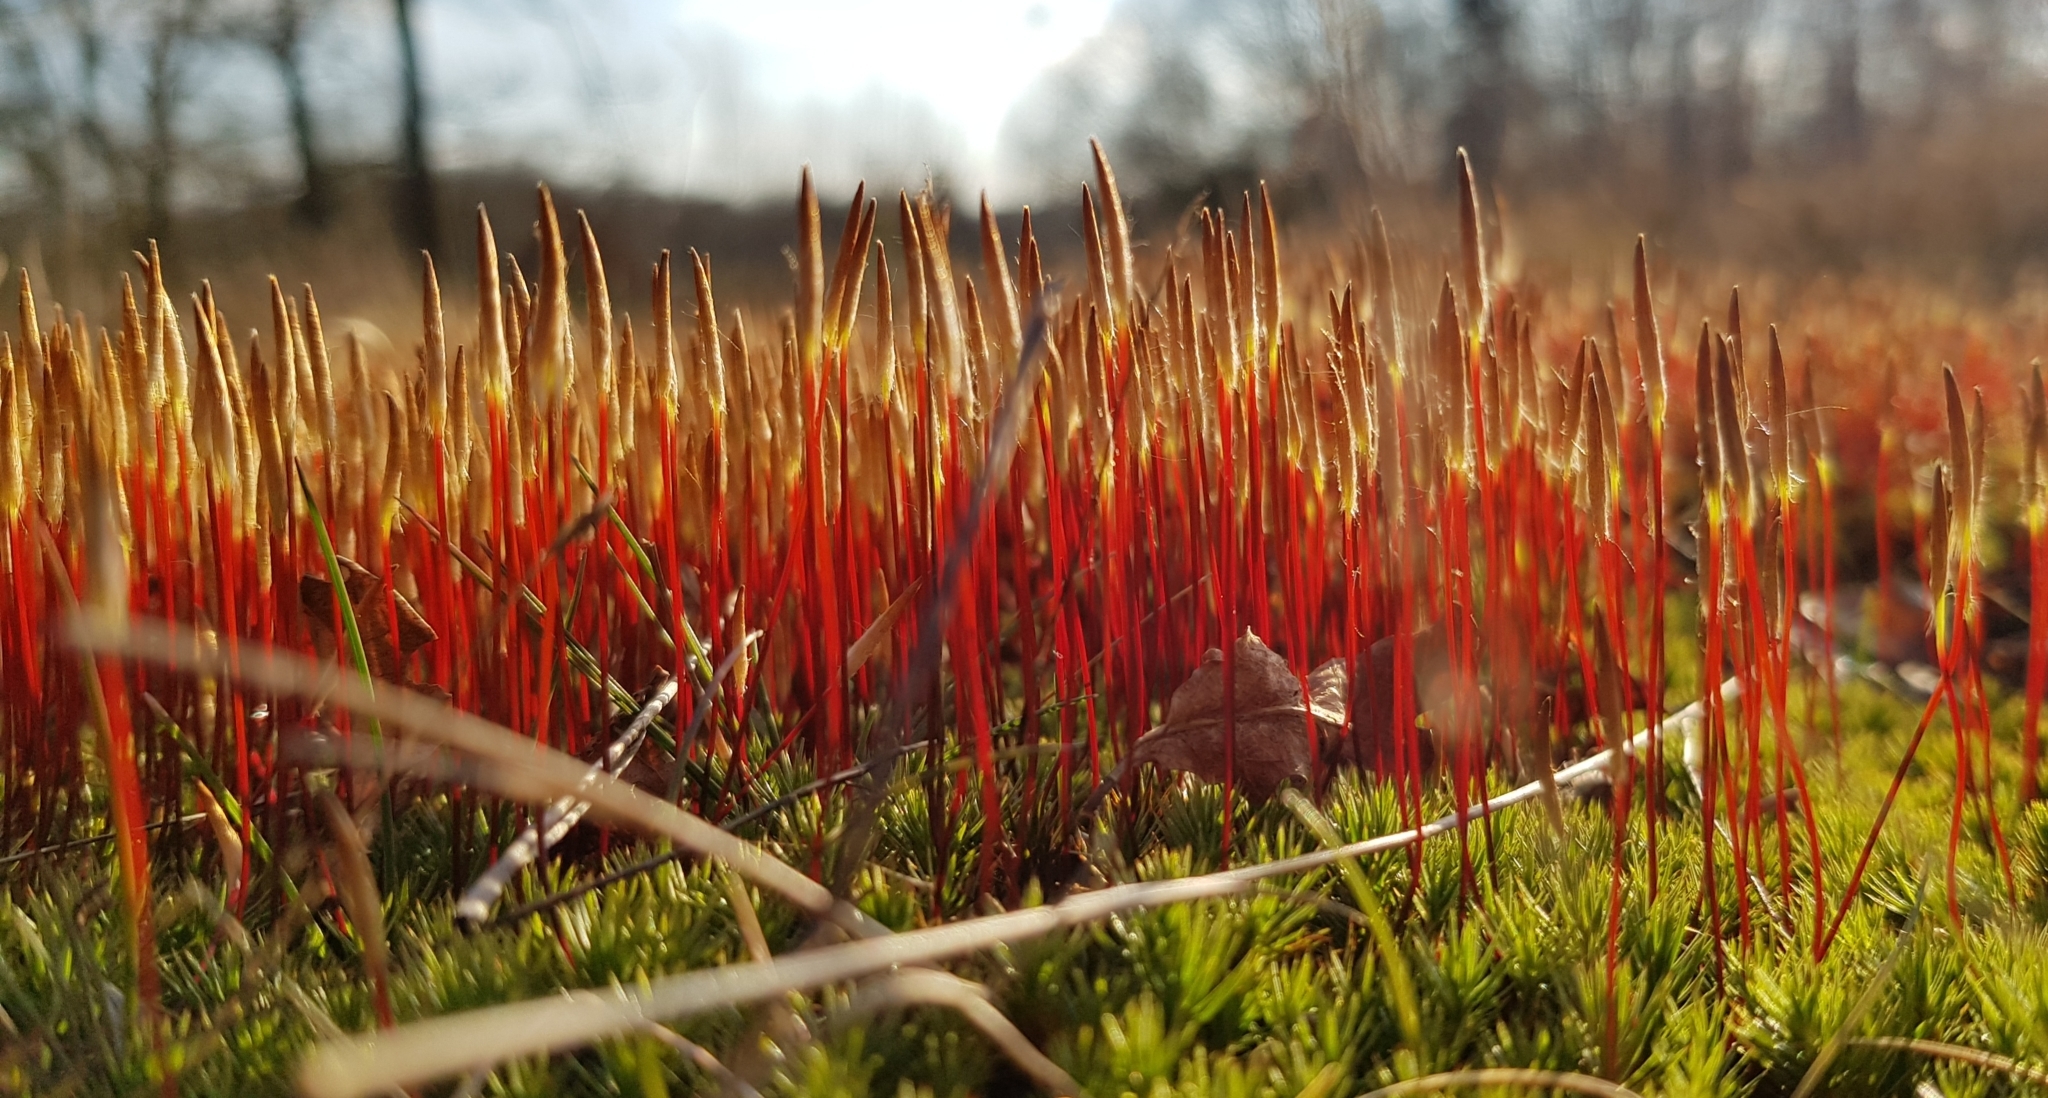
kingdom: Plantae
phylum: Bryophyta
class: Polytrichopsida
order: Polytrichales
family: Polytrichaceae
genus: Polytrichum
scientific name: Polytrichum juniperinum
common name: Juniper haircap moss
